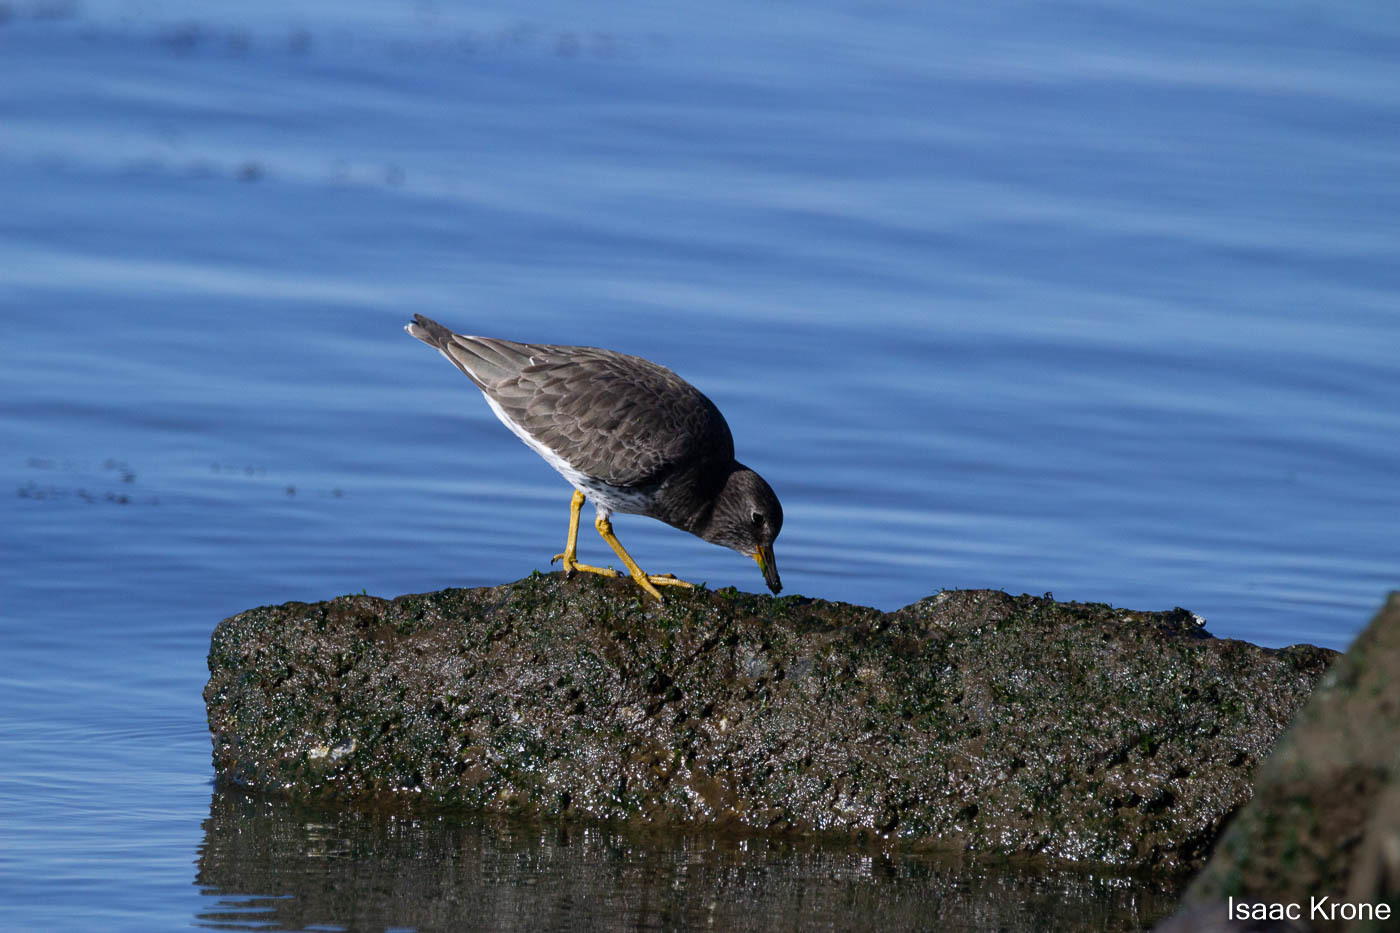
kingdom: Animalia
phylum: Chordata
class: Aves
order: Charadriiformes
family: Scolopacidae
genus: Calidris
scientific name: Calidris virgata
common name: Surfbird
